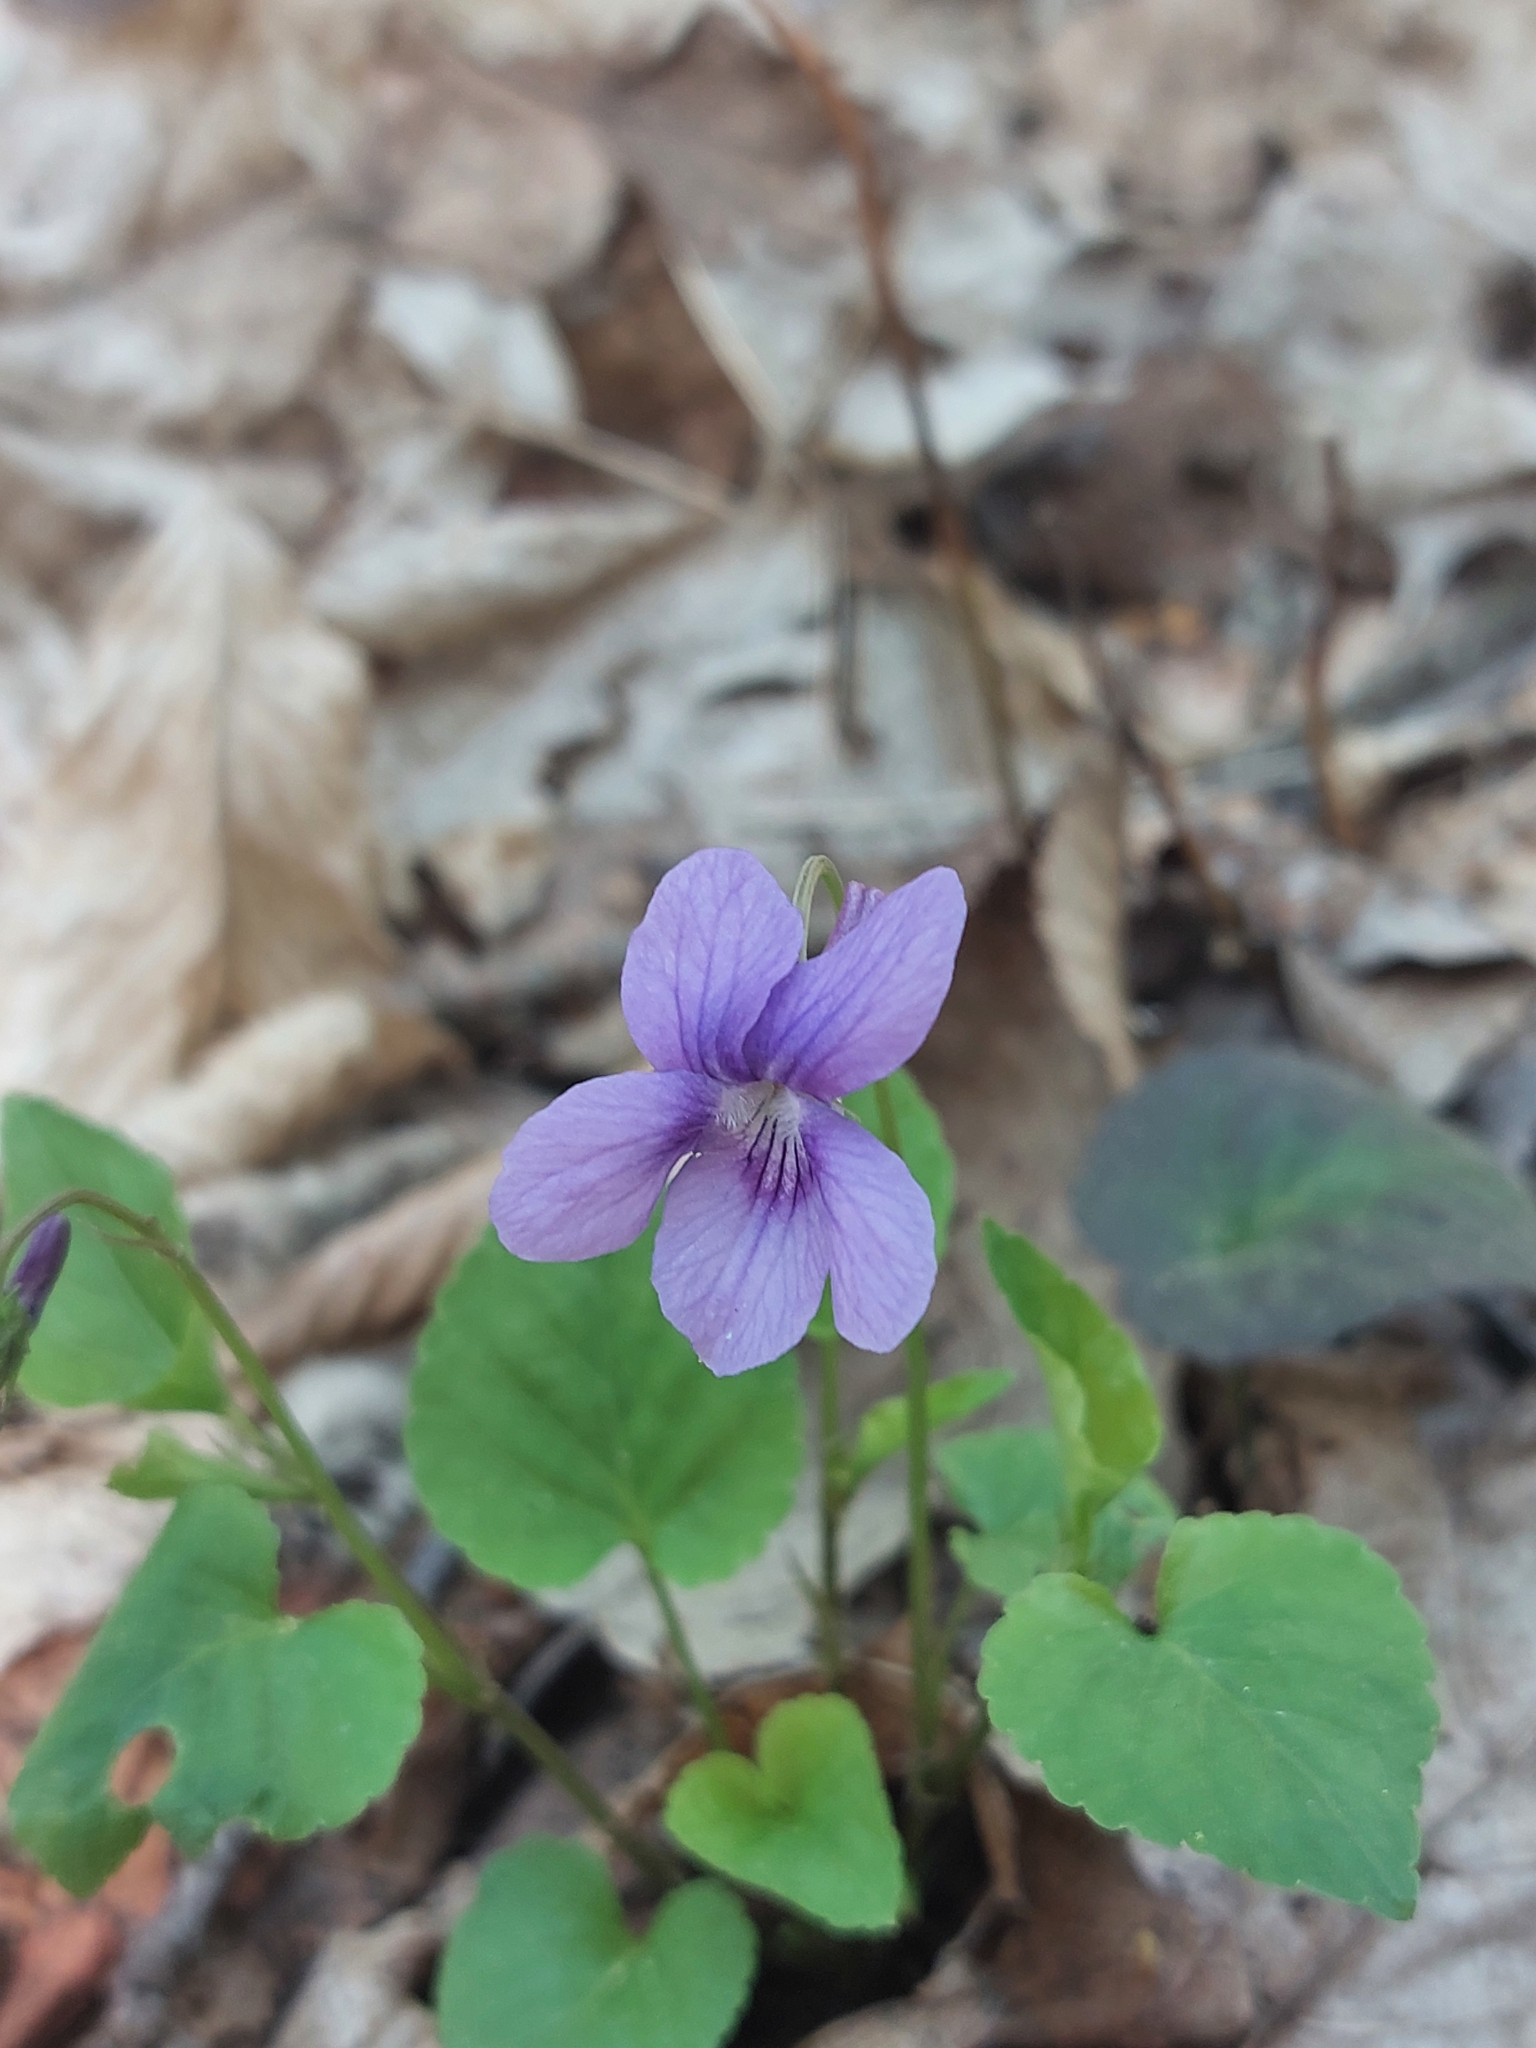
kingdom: Plantae
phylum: Tracheophyta
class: Magnoliopsida
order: Malpighiales
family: Violaceae
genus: Viola
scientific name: Viola reichenbachiana
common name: Early dog-violet
